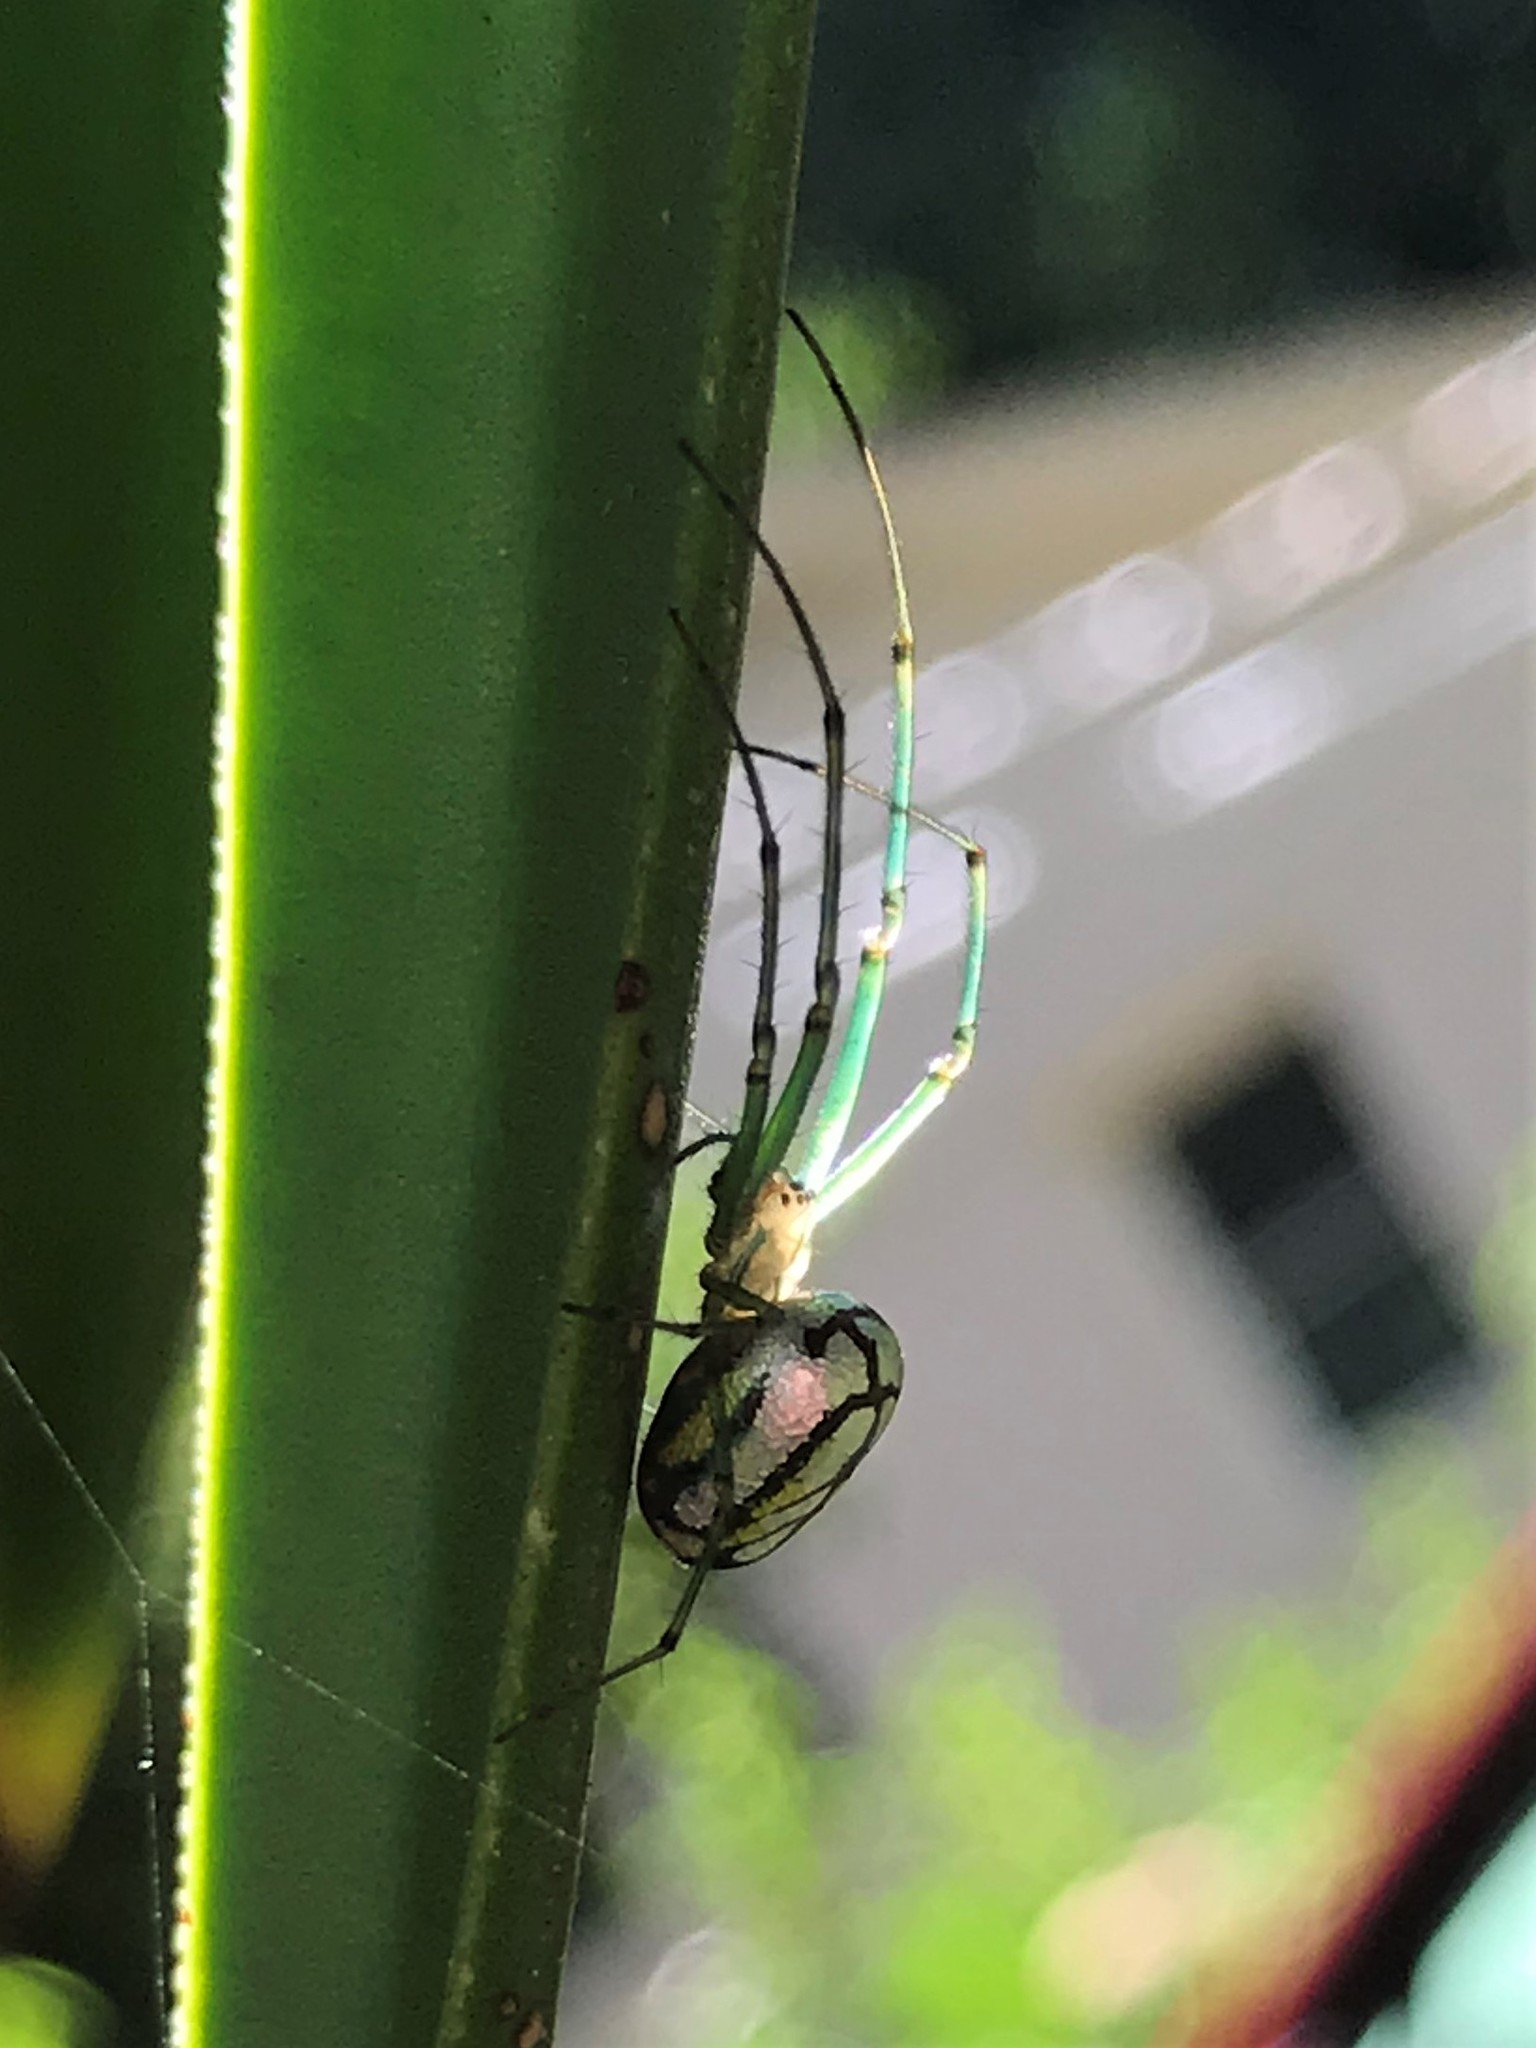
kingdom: Animalia
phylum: Arthropoda
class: Arachnida
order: Araneae
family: Tetragnathidae
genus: Leucauge
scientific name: Leucauge venusta
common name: Longjawed orb weavers
